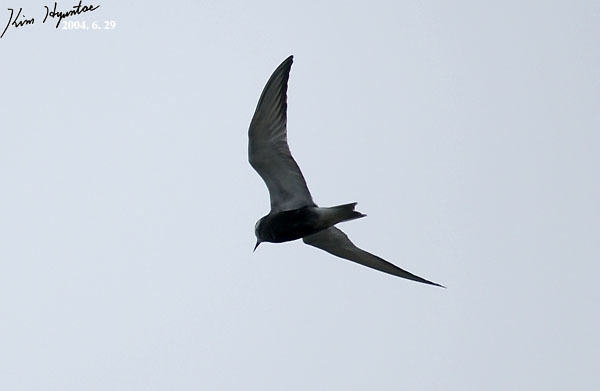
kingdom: Animalia
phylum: Chordata
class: Aves
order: Charadriiformes
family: Laridae
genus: Chlidonias
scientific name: Chlidonias hybrida
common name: Whiskered tern
